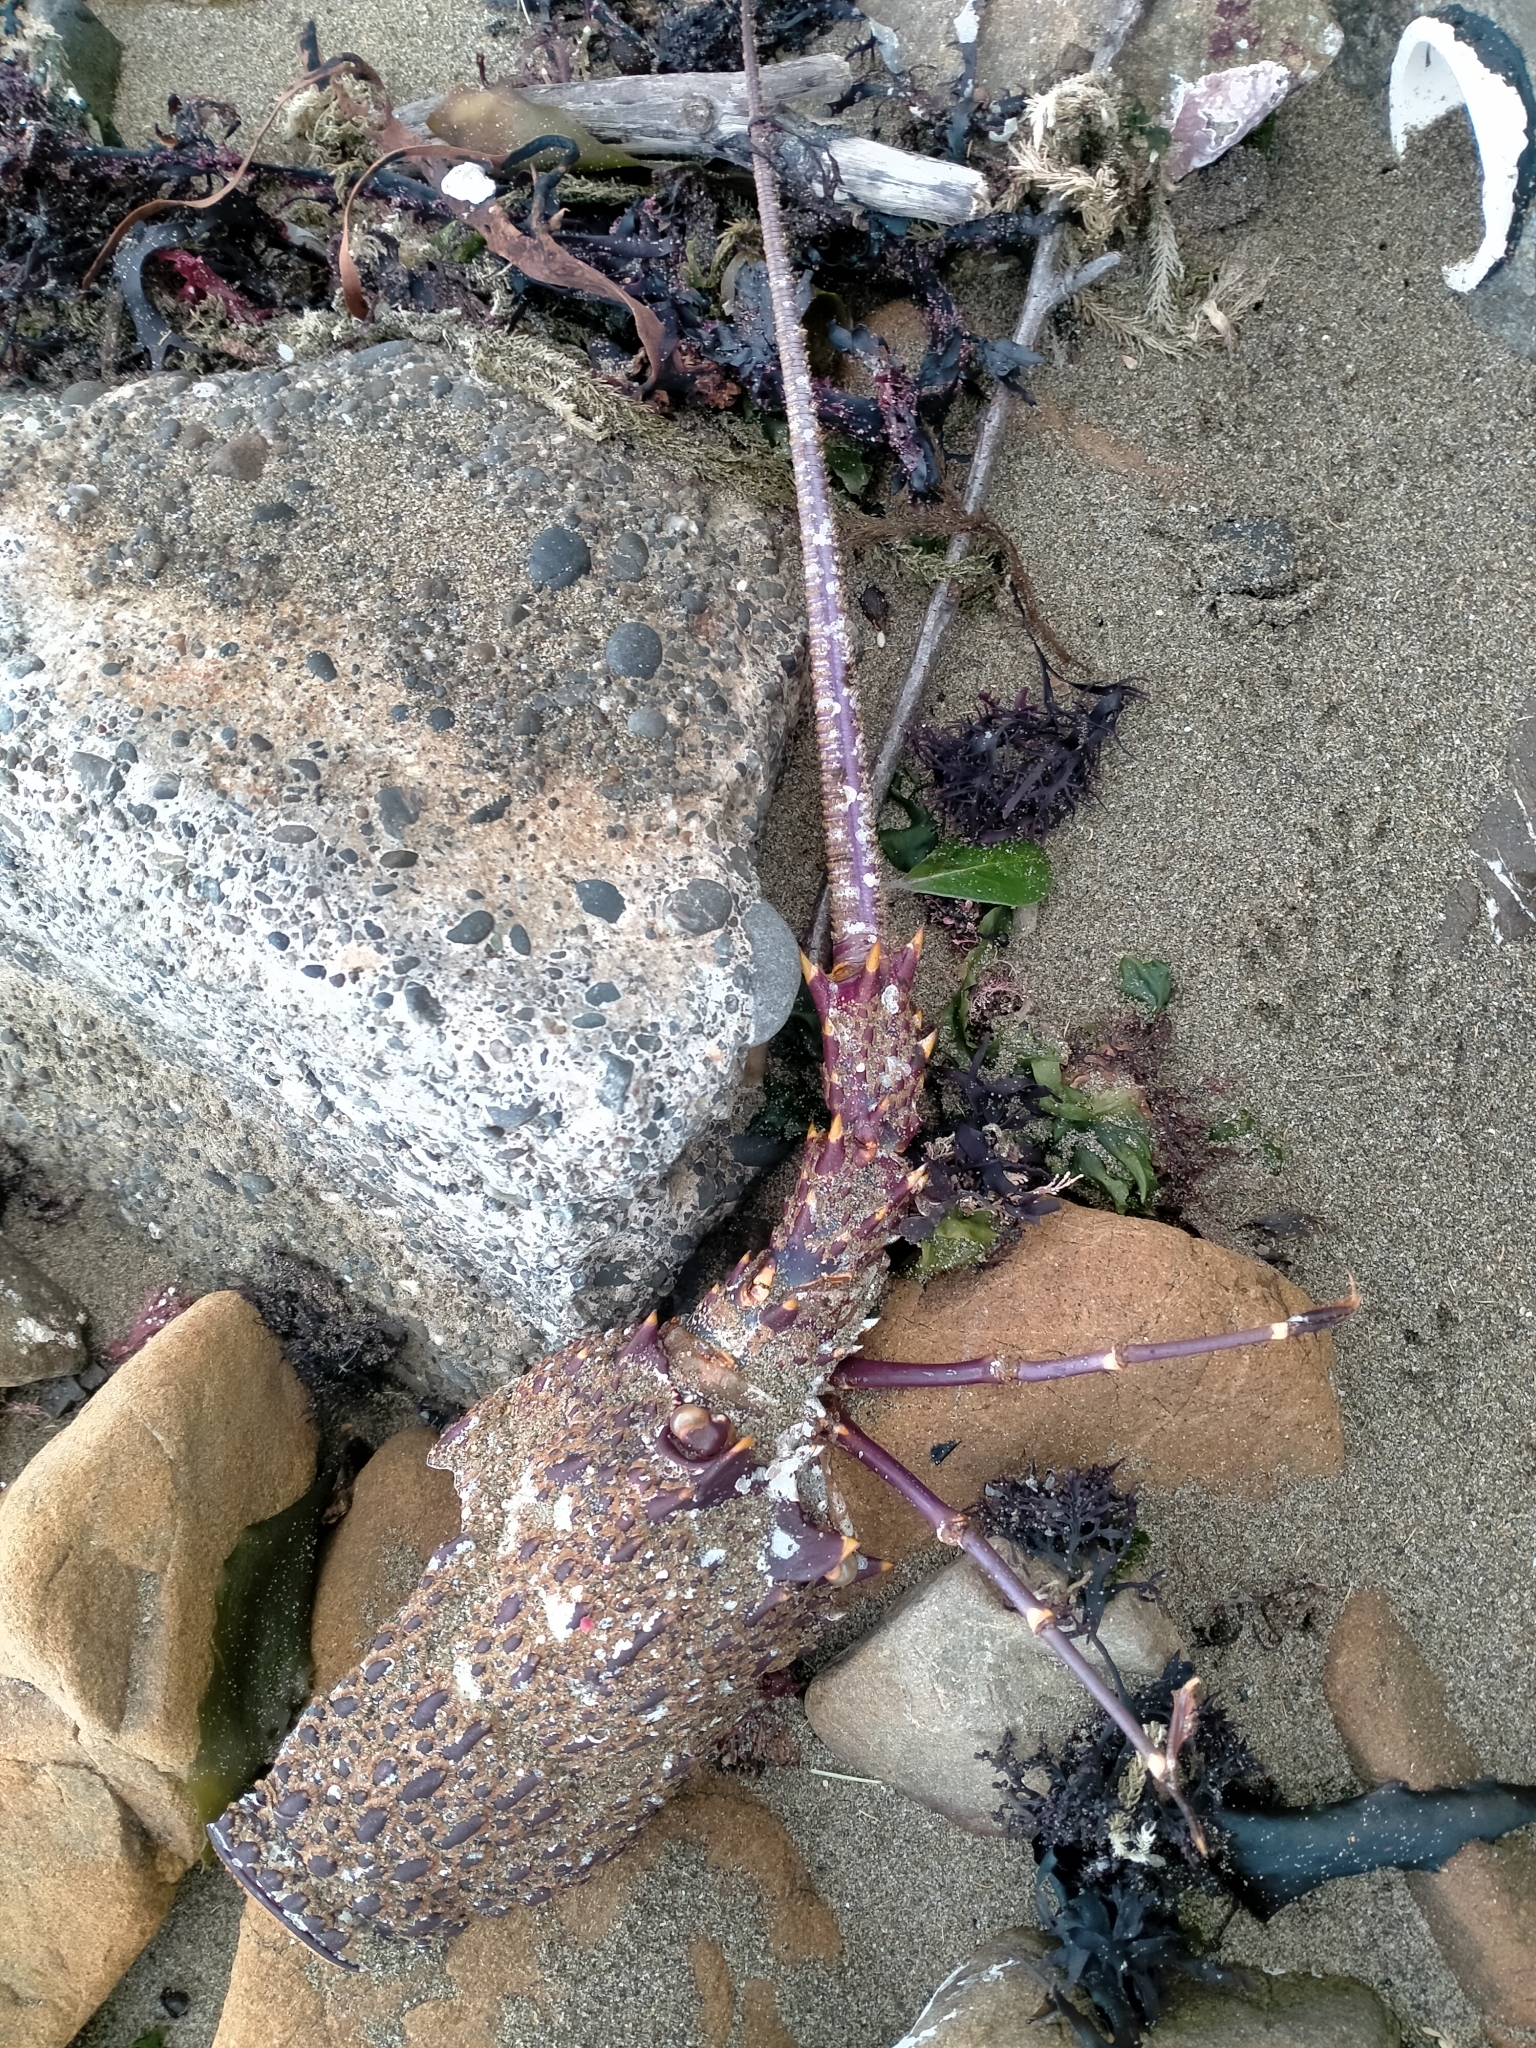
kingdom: Animalia
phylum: Arthropoda
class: Malacostraca
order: Decapoda
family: Palinuridae
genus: Jasus
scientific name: Jasus edwardsii
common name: Red rock lobster
